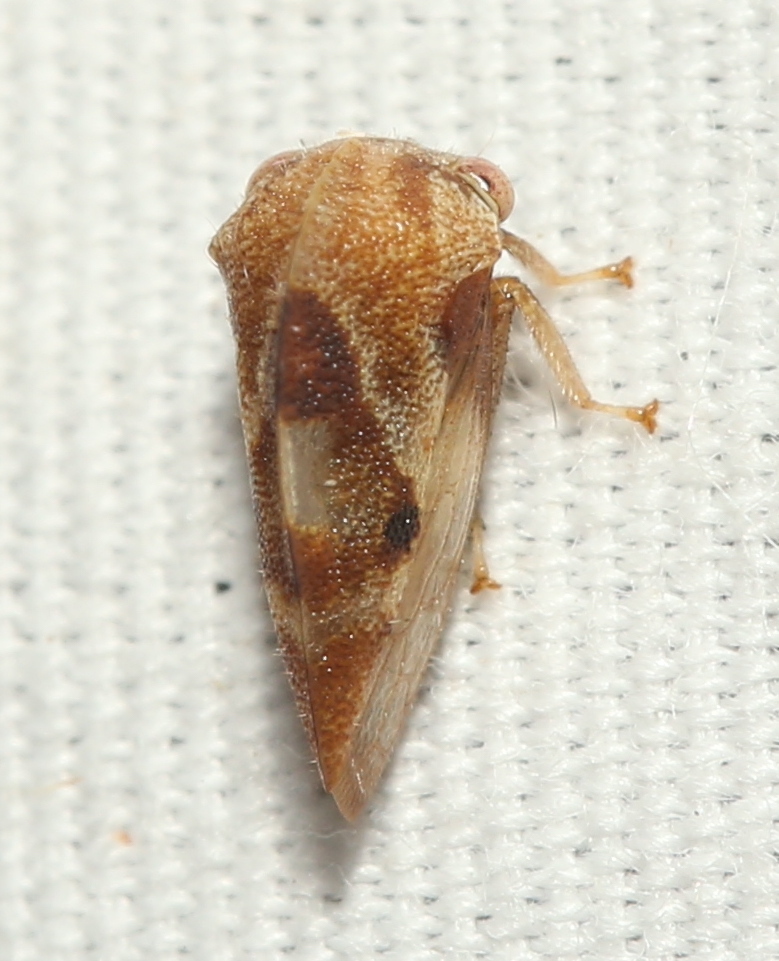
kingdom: Animalia
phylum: Arthropoda
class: Insecta
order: Hemiptera
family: Membracidae
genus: Cyrtolobus
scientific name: Cyrtolobus vau
